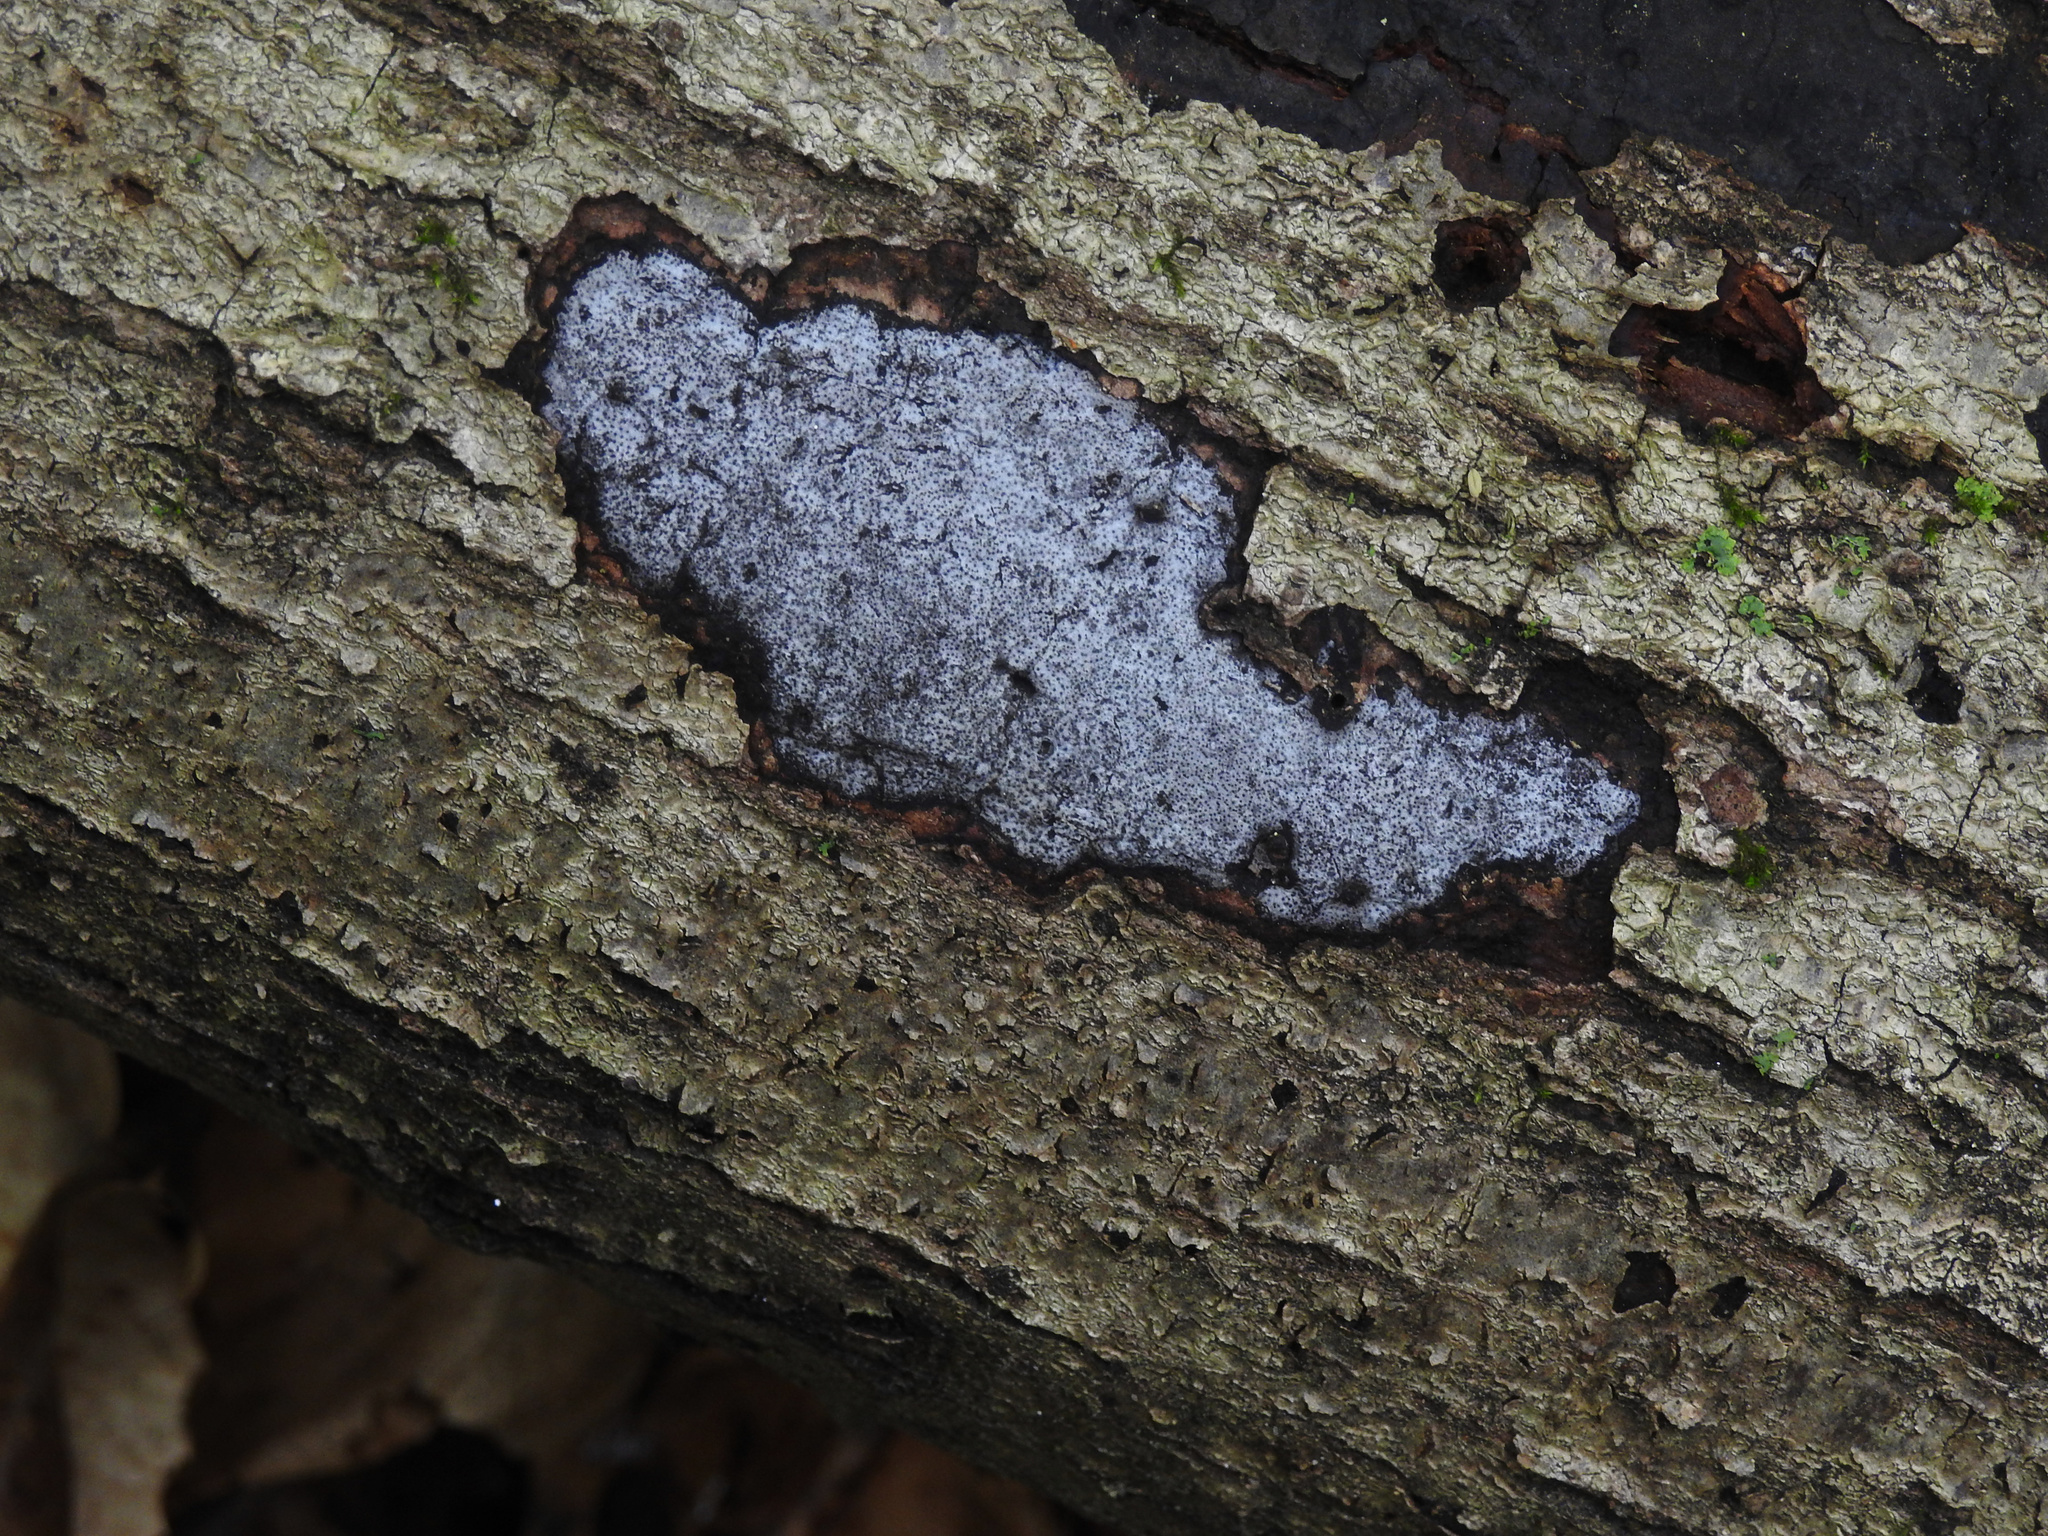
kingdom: Fungi
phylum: Ascomycota
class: Sordariomycetes
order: Xylariales
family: Graphostromataceae
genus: Biscogniauxia
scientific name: Biscogniauxia atropunctata
